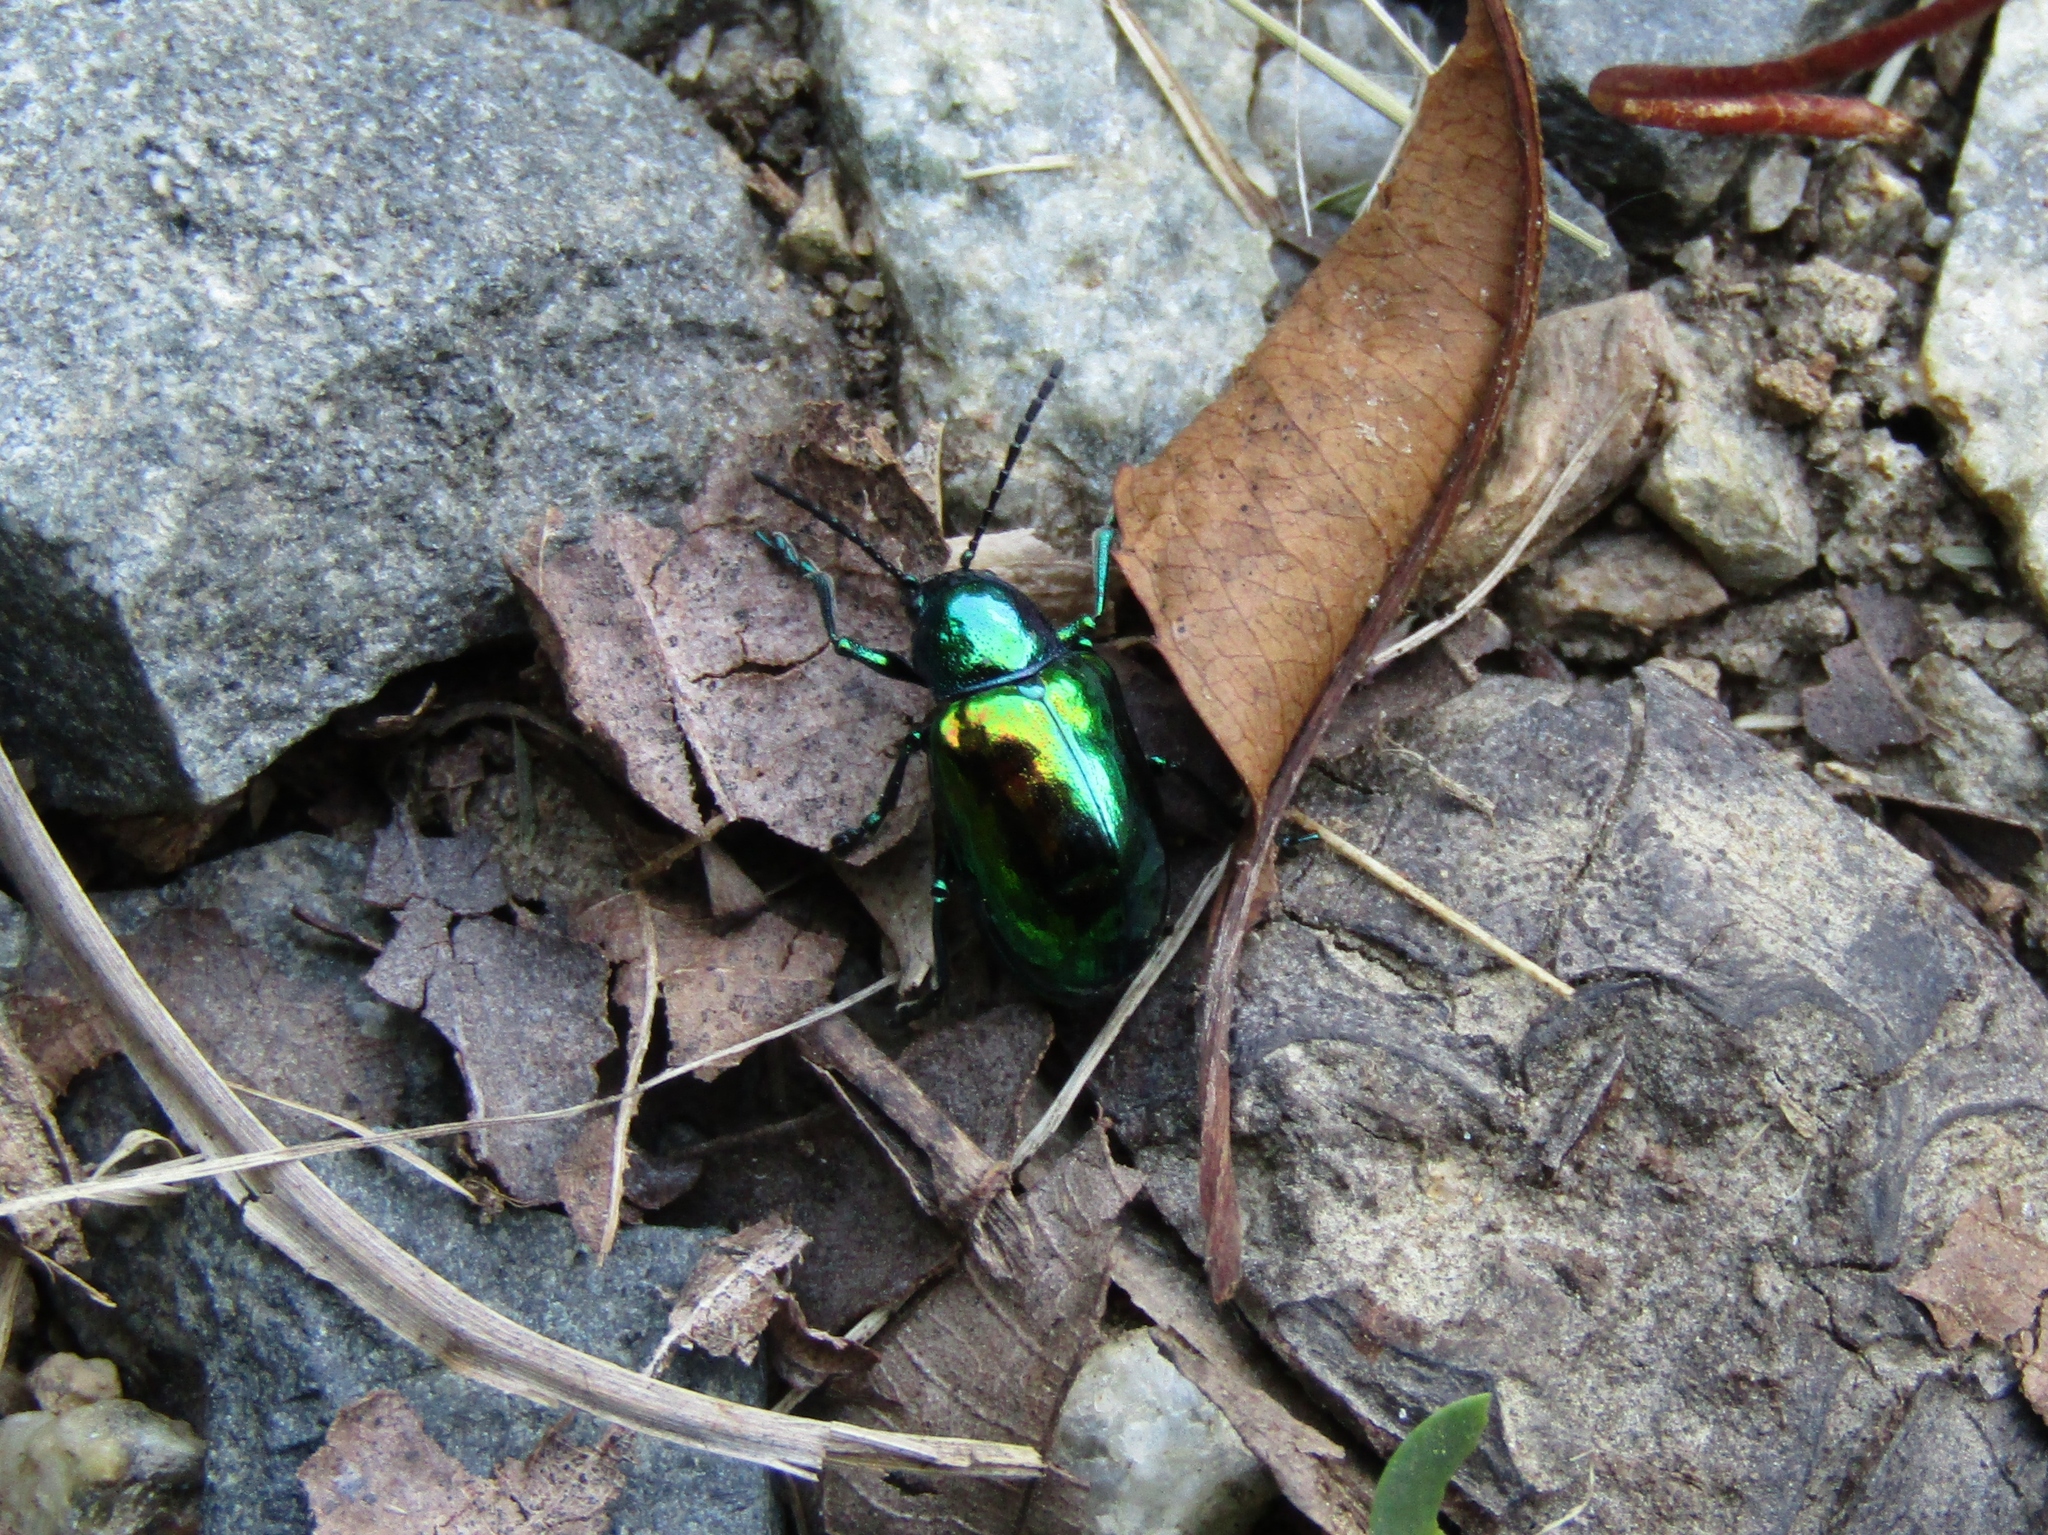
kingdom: Animalia
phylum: Arthropoda
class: Insecta
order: Coleoptera
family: Chrysomelidae
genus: Chrysochus
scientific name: Chrysochus auratus
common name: Dogbane leaf beetle
